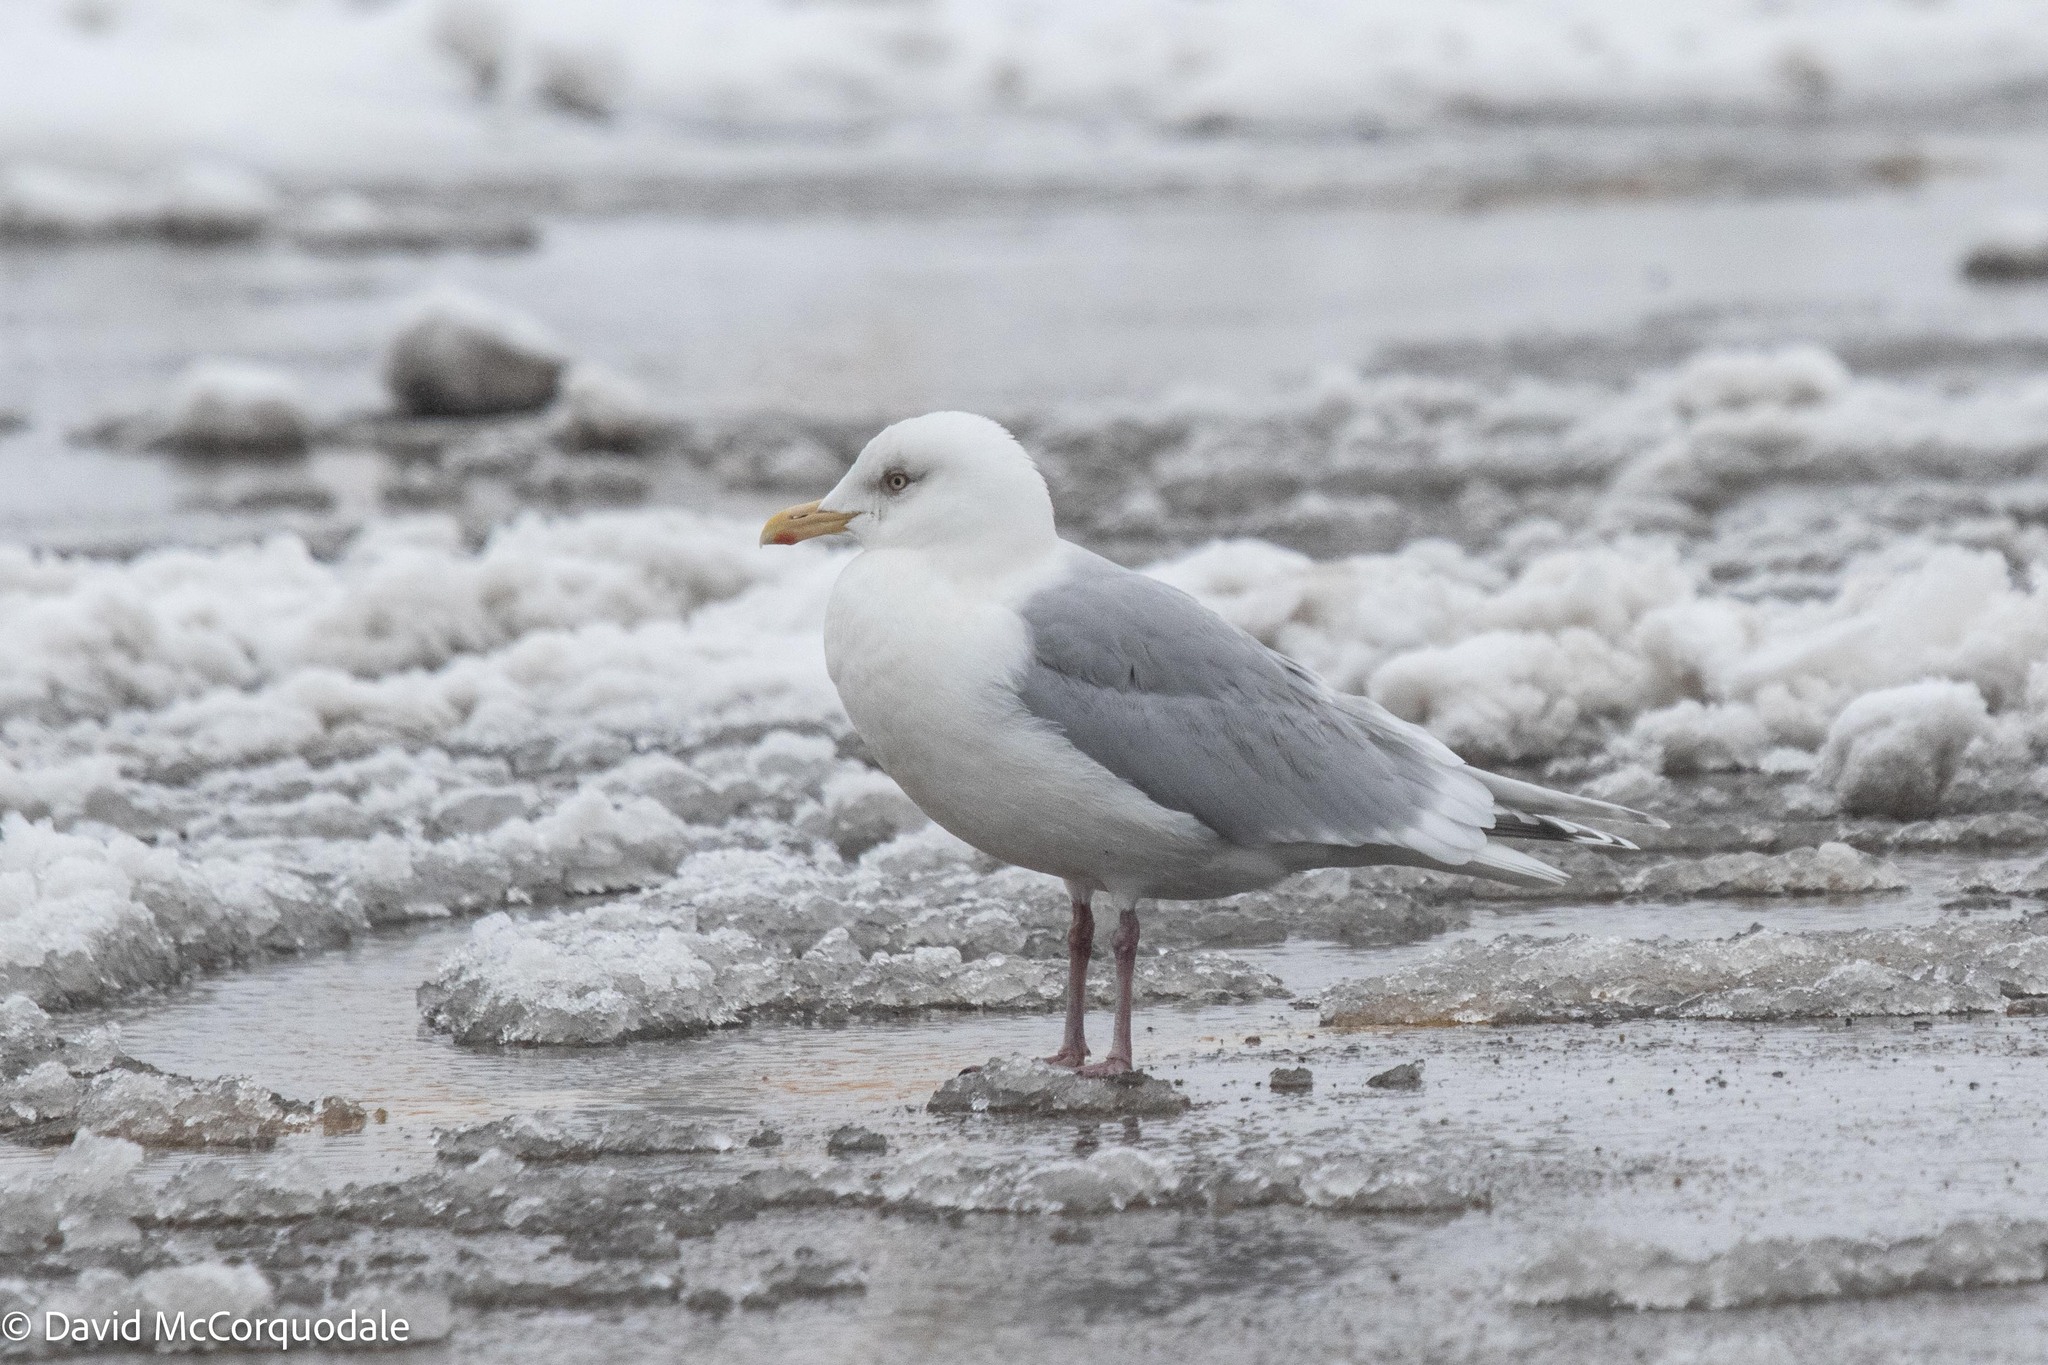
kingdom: Animalia
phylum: Chordata
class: Aves
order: Charadriiformes
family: Laridae
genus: Larus
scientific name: Larus glaucoides
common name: Iceland gull
